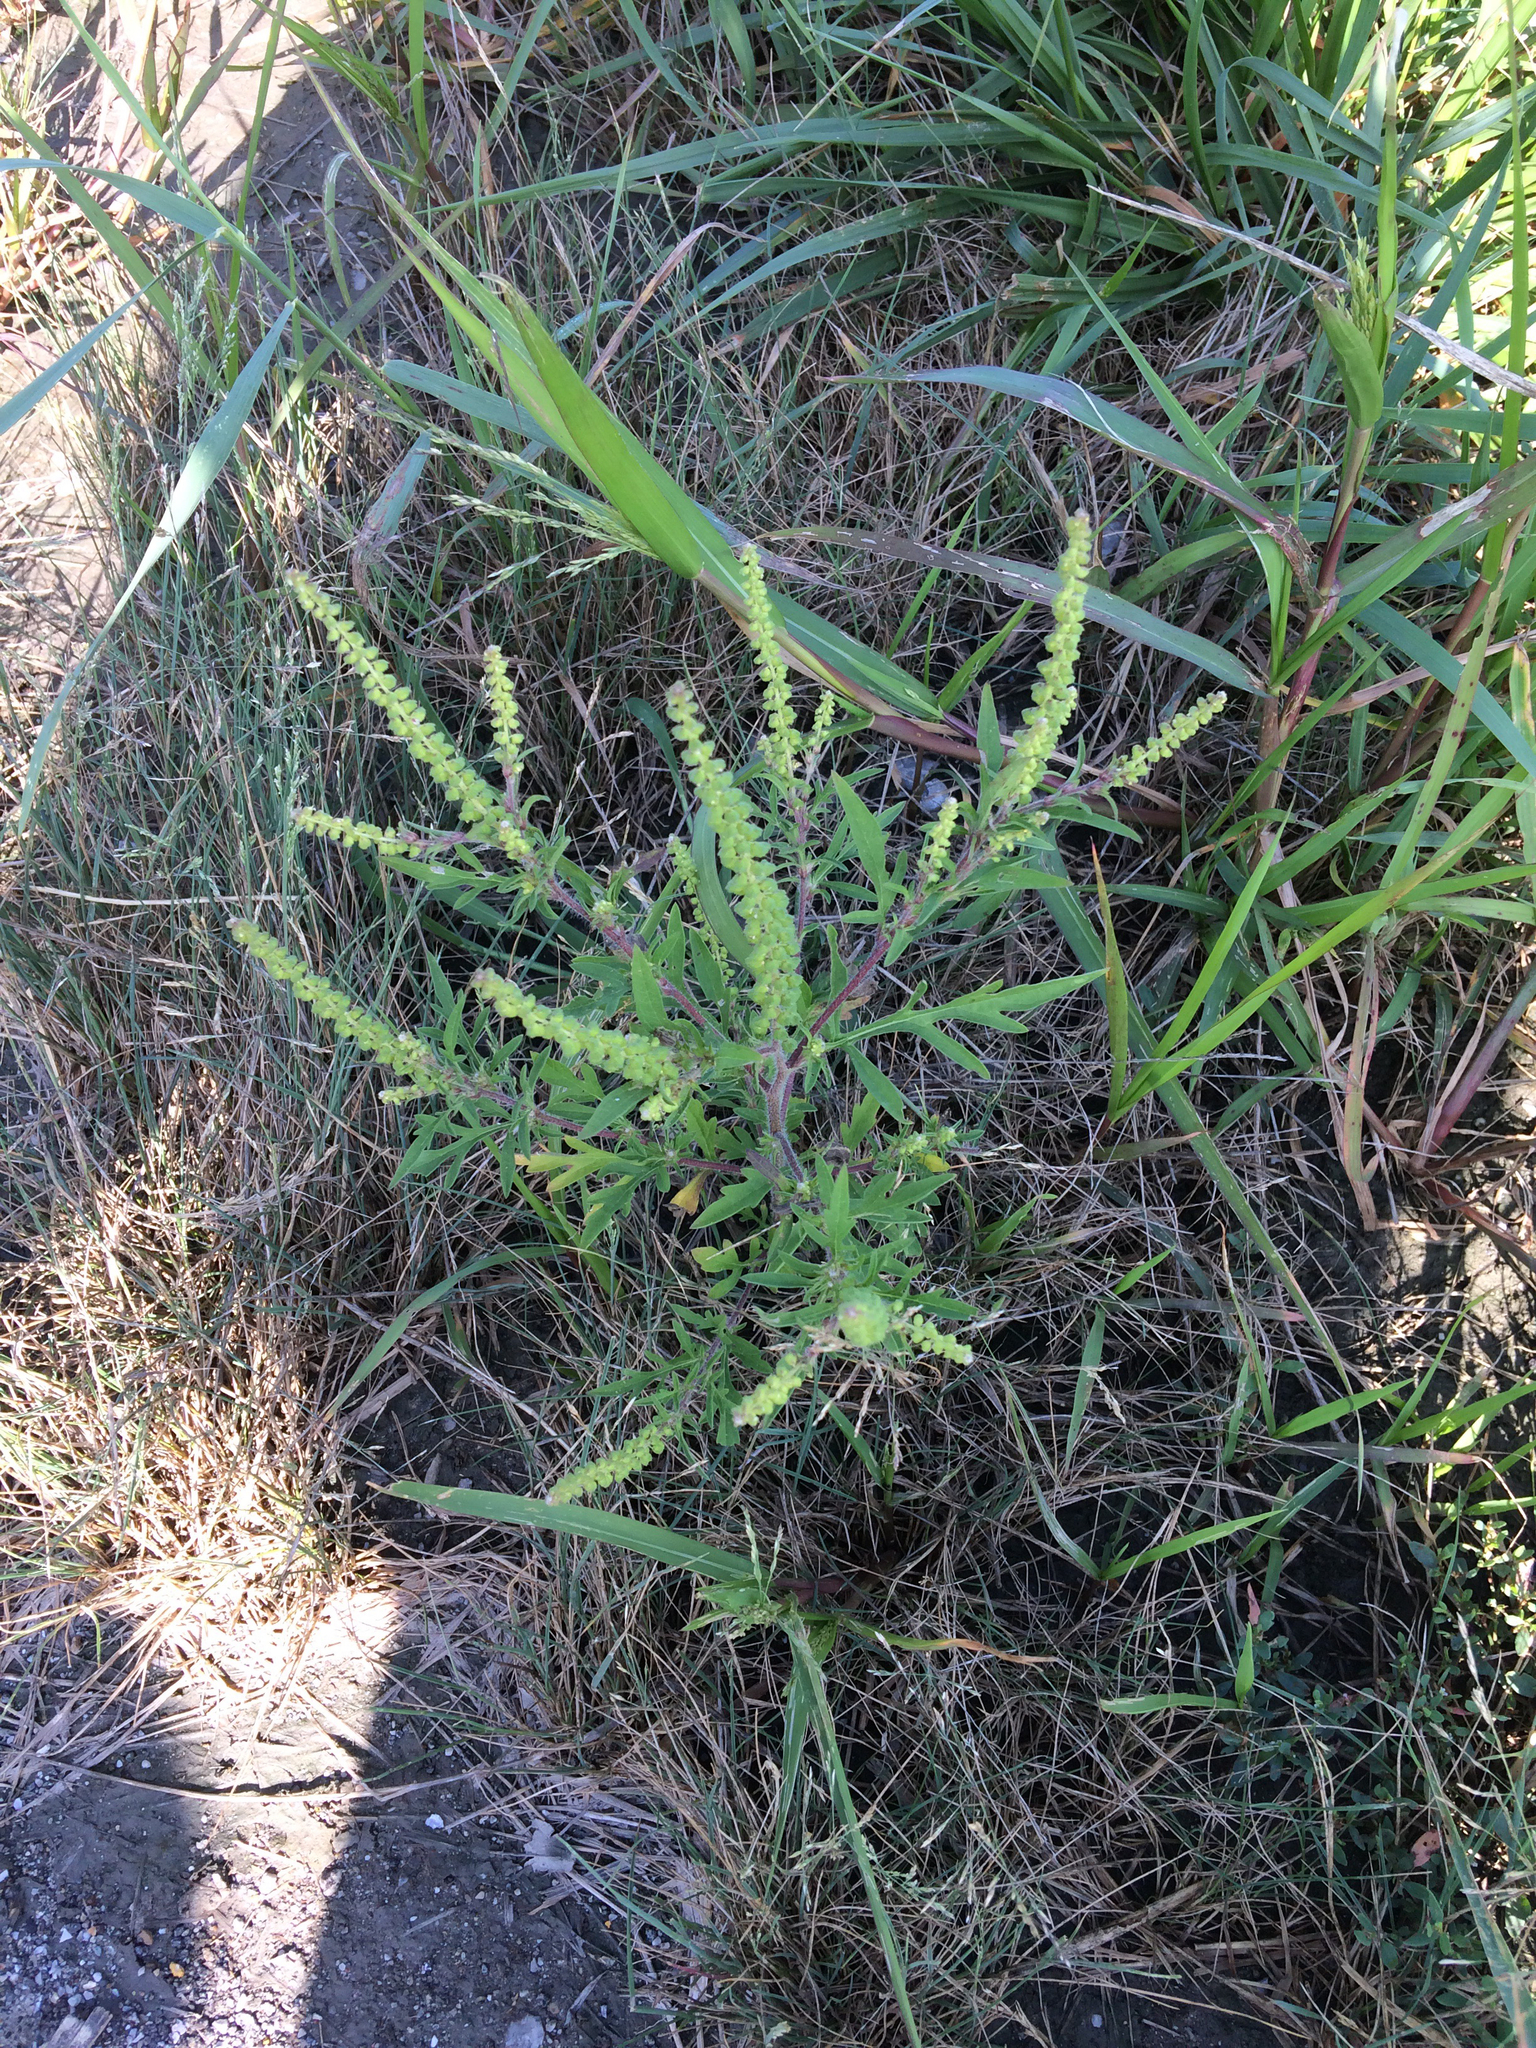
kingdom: Plantae
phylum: Tracheophyta
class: Magnoliopsida
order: Asterales
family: Asteraceae
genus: Ambrosia
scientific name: Ambrosia artemisiifolia
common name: Annual ragweed
